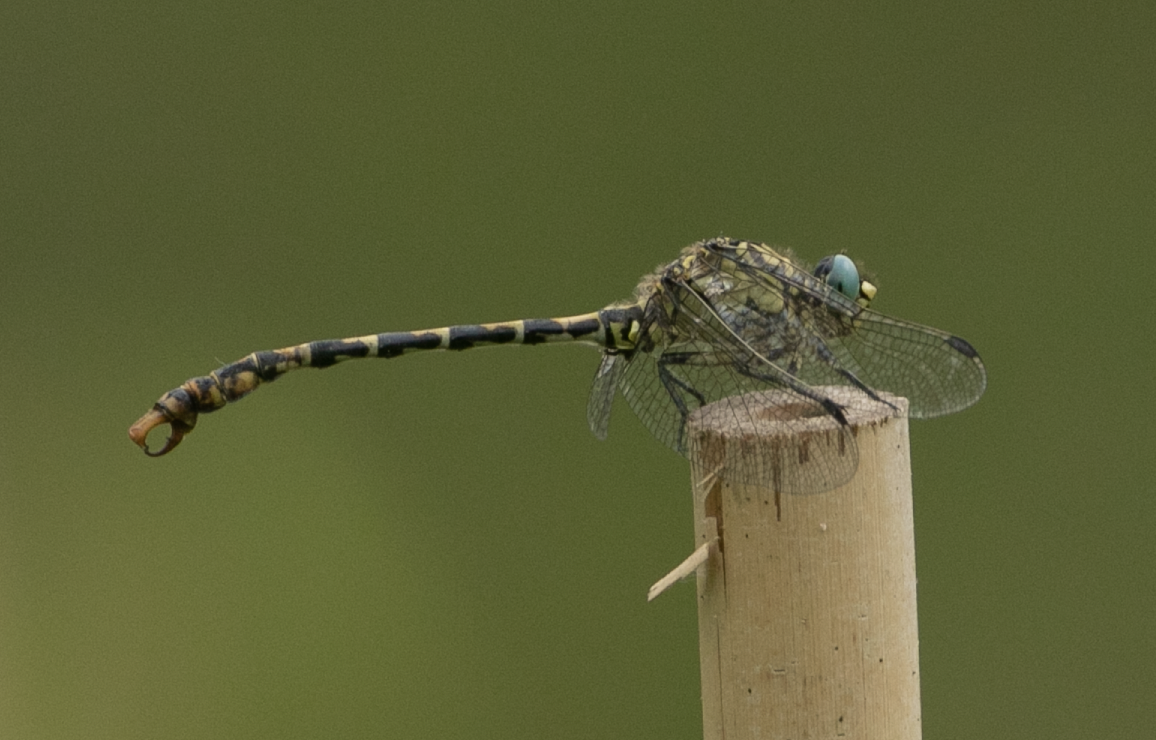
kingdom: Animalia
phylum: Arthropoda
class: Insecta
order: Odonata
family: Gomphidae
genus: Onychogomphus
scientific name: Onychogomphus forcipatus
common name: Small pincertail
